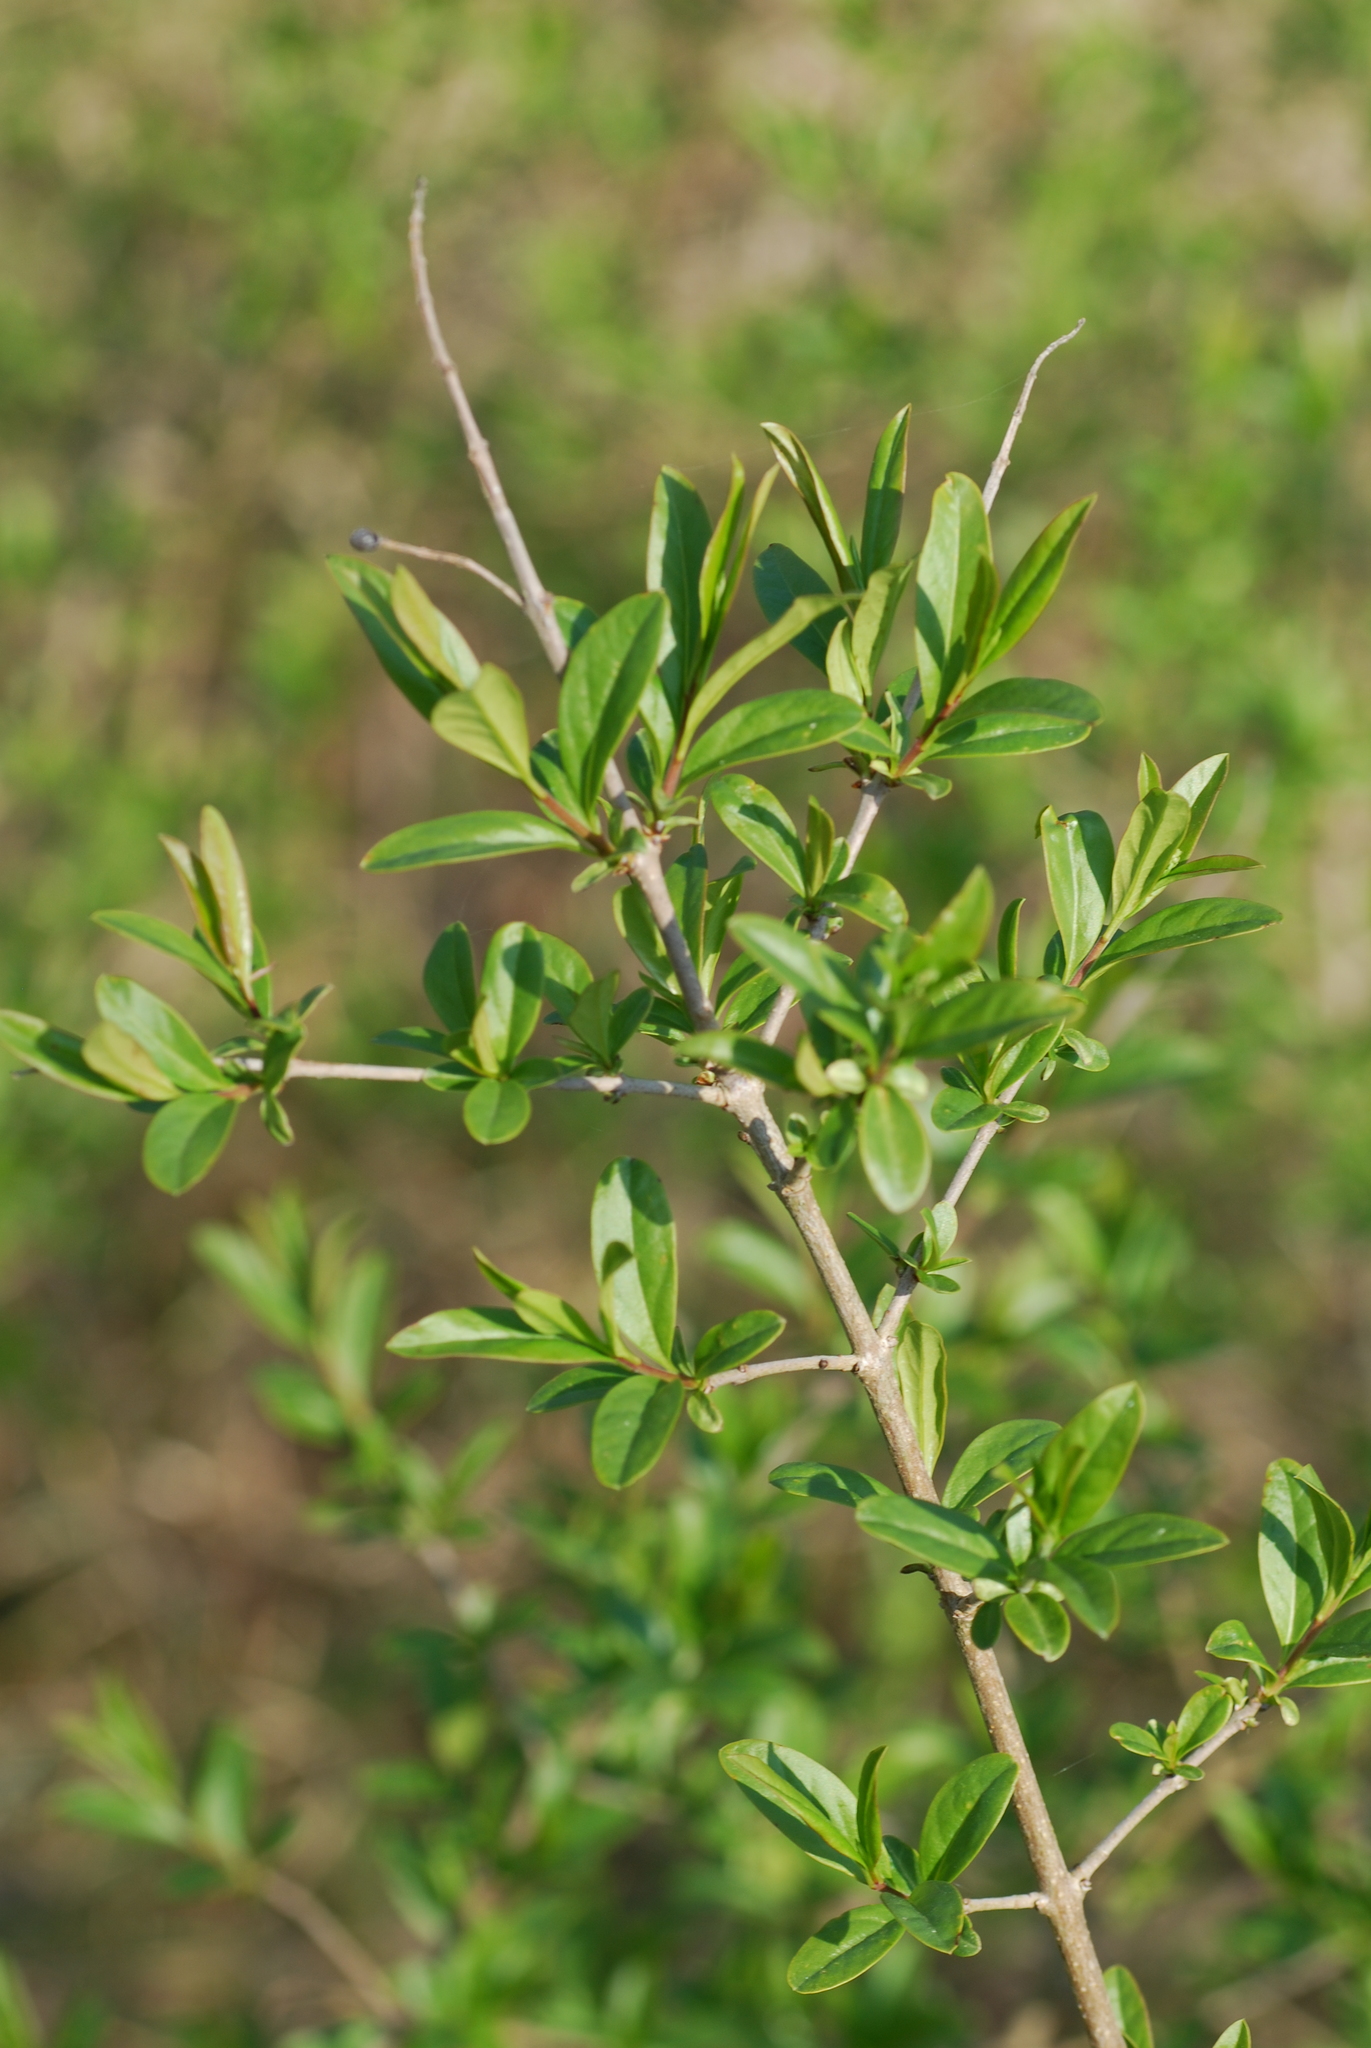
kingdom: Plantae
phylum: Tracheophyta
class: Magnoliopsida
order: Lamiales
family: Oleaceae
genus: Ligustrum
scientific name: Ligustrum vulgare
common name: Wild privet
